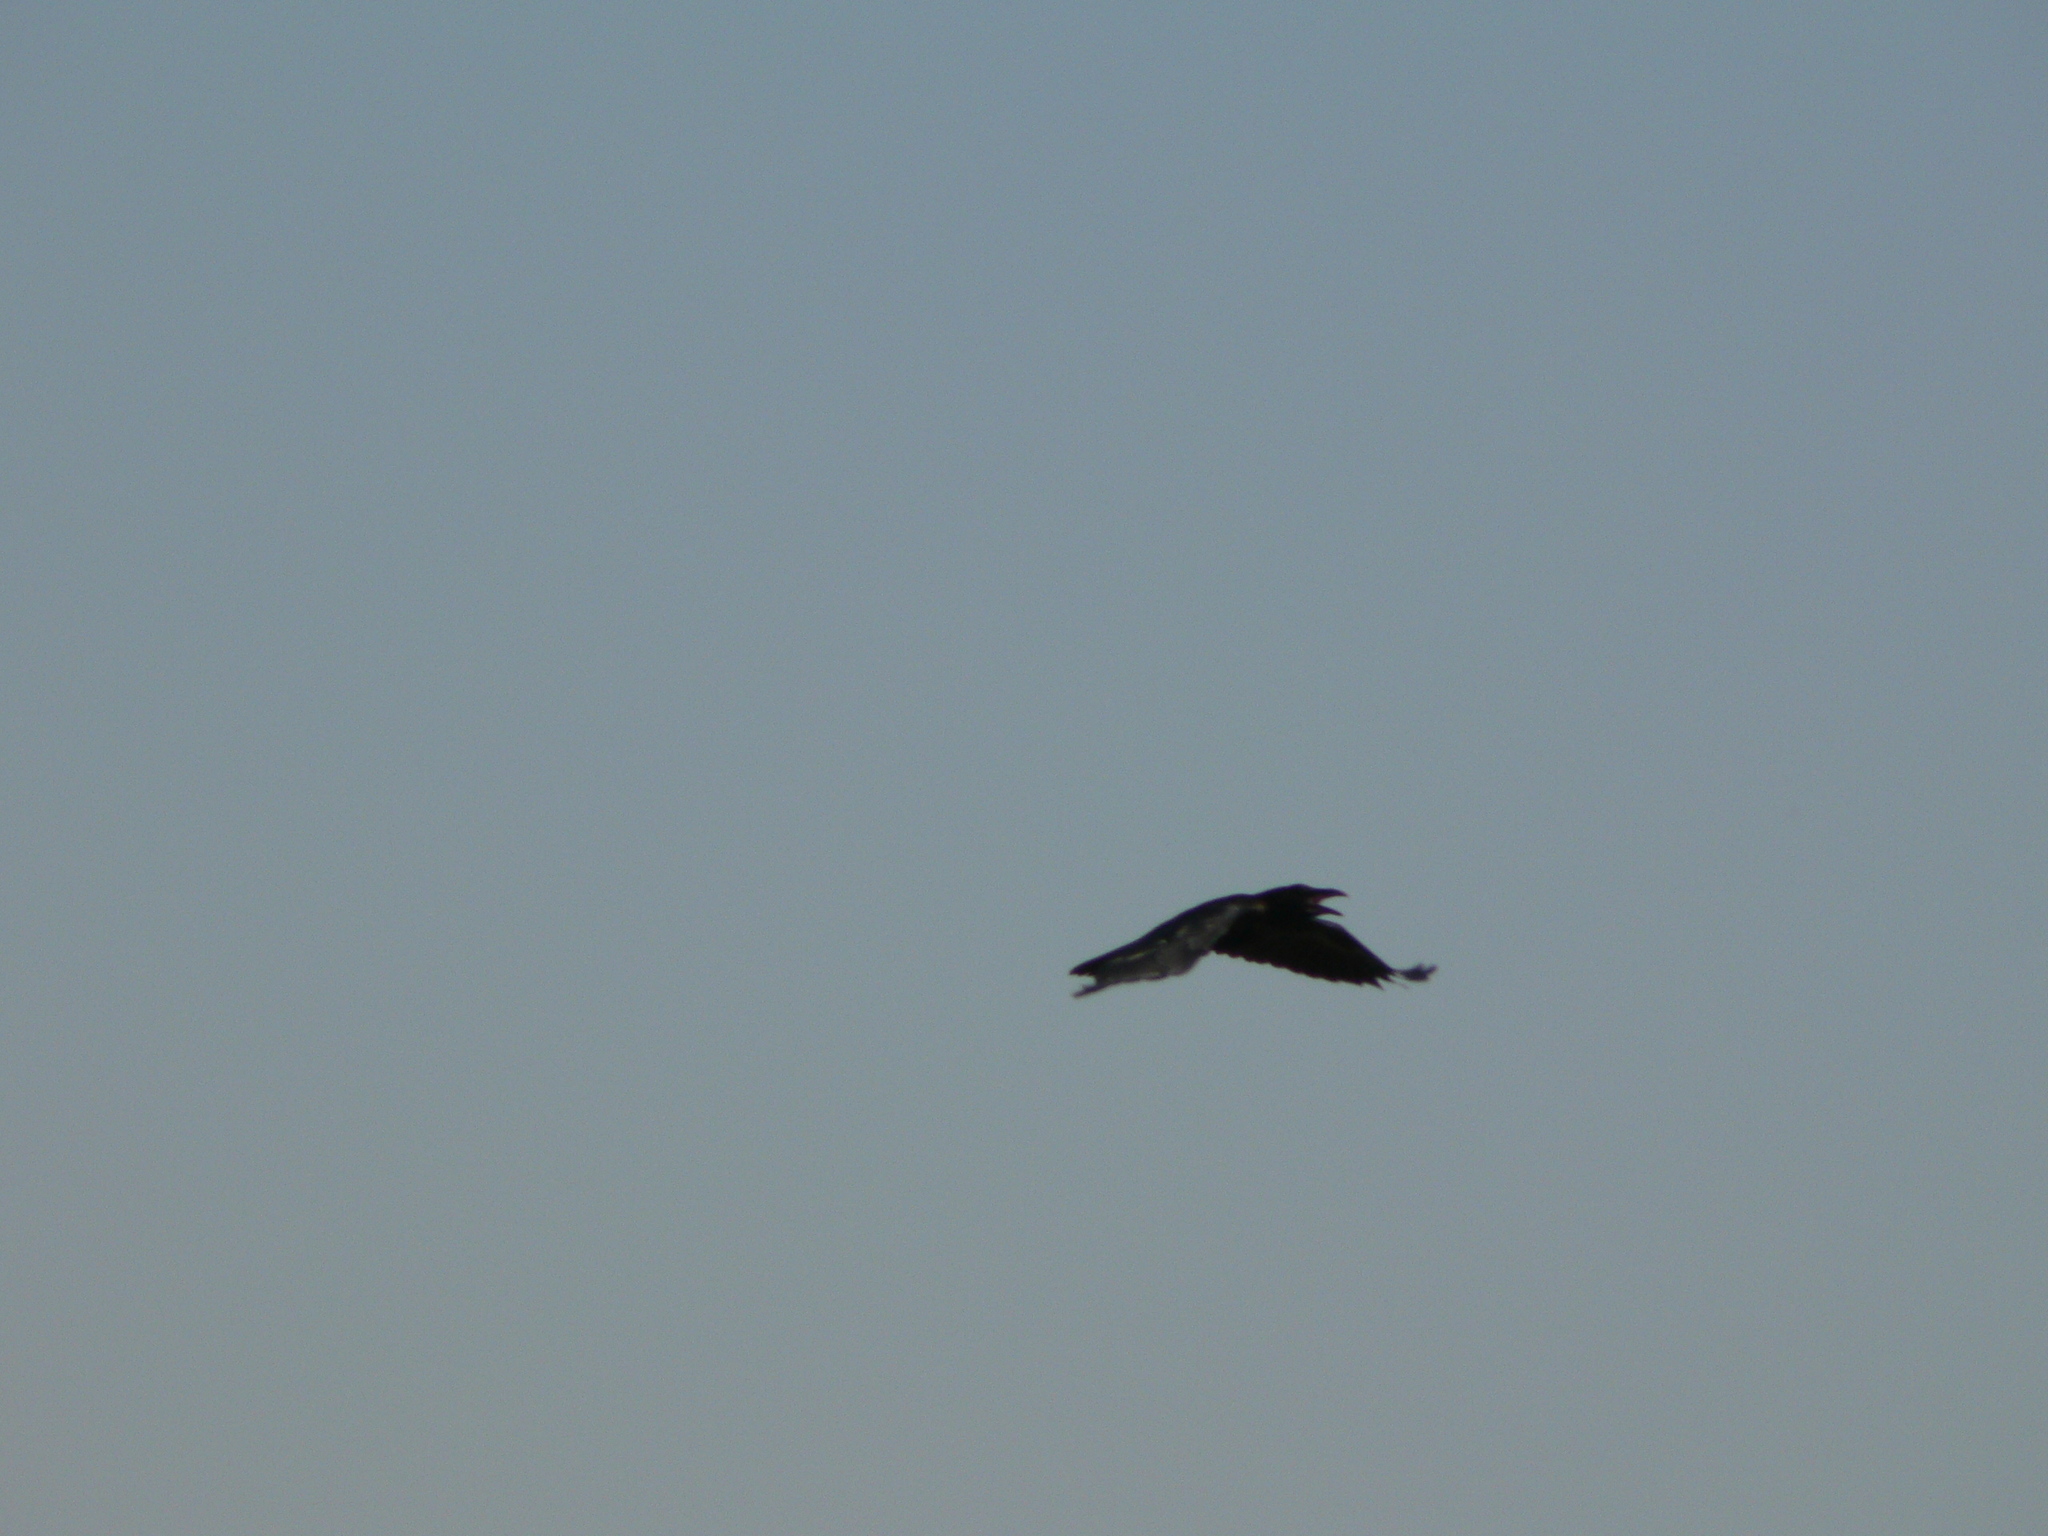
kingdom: Animalia
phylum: Chordata
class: Aves
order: Passeriformes
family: Corvidae
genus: Corvus
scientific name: Corvus corax
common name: Common raven
